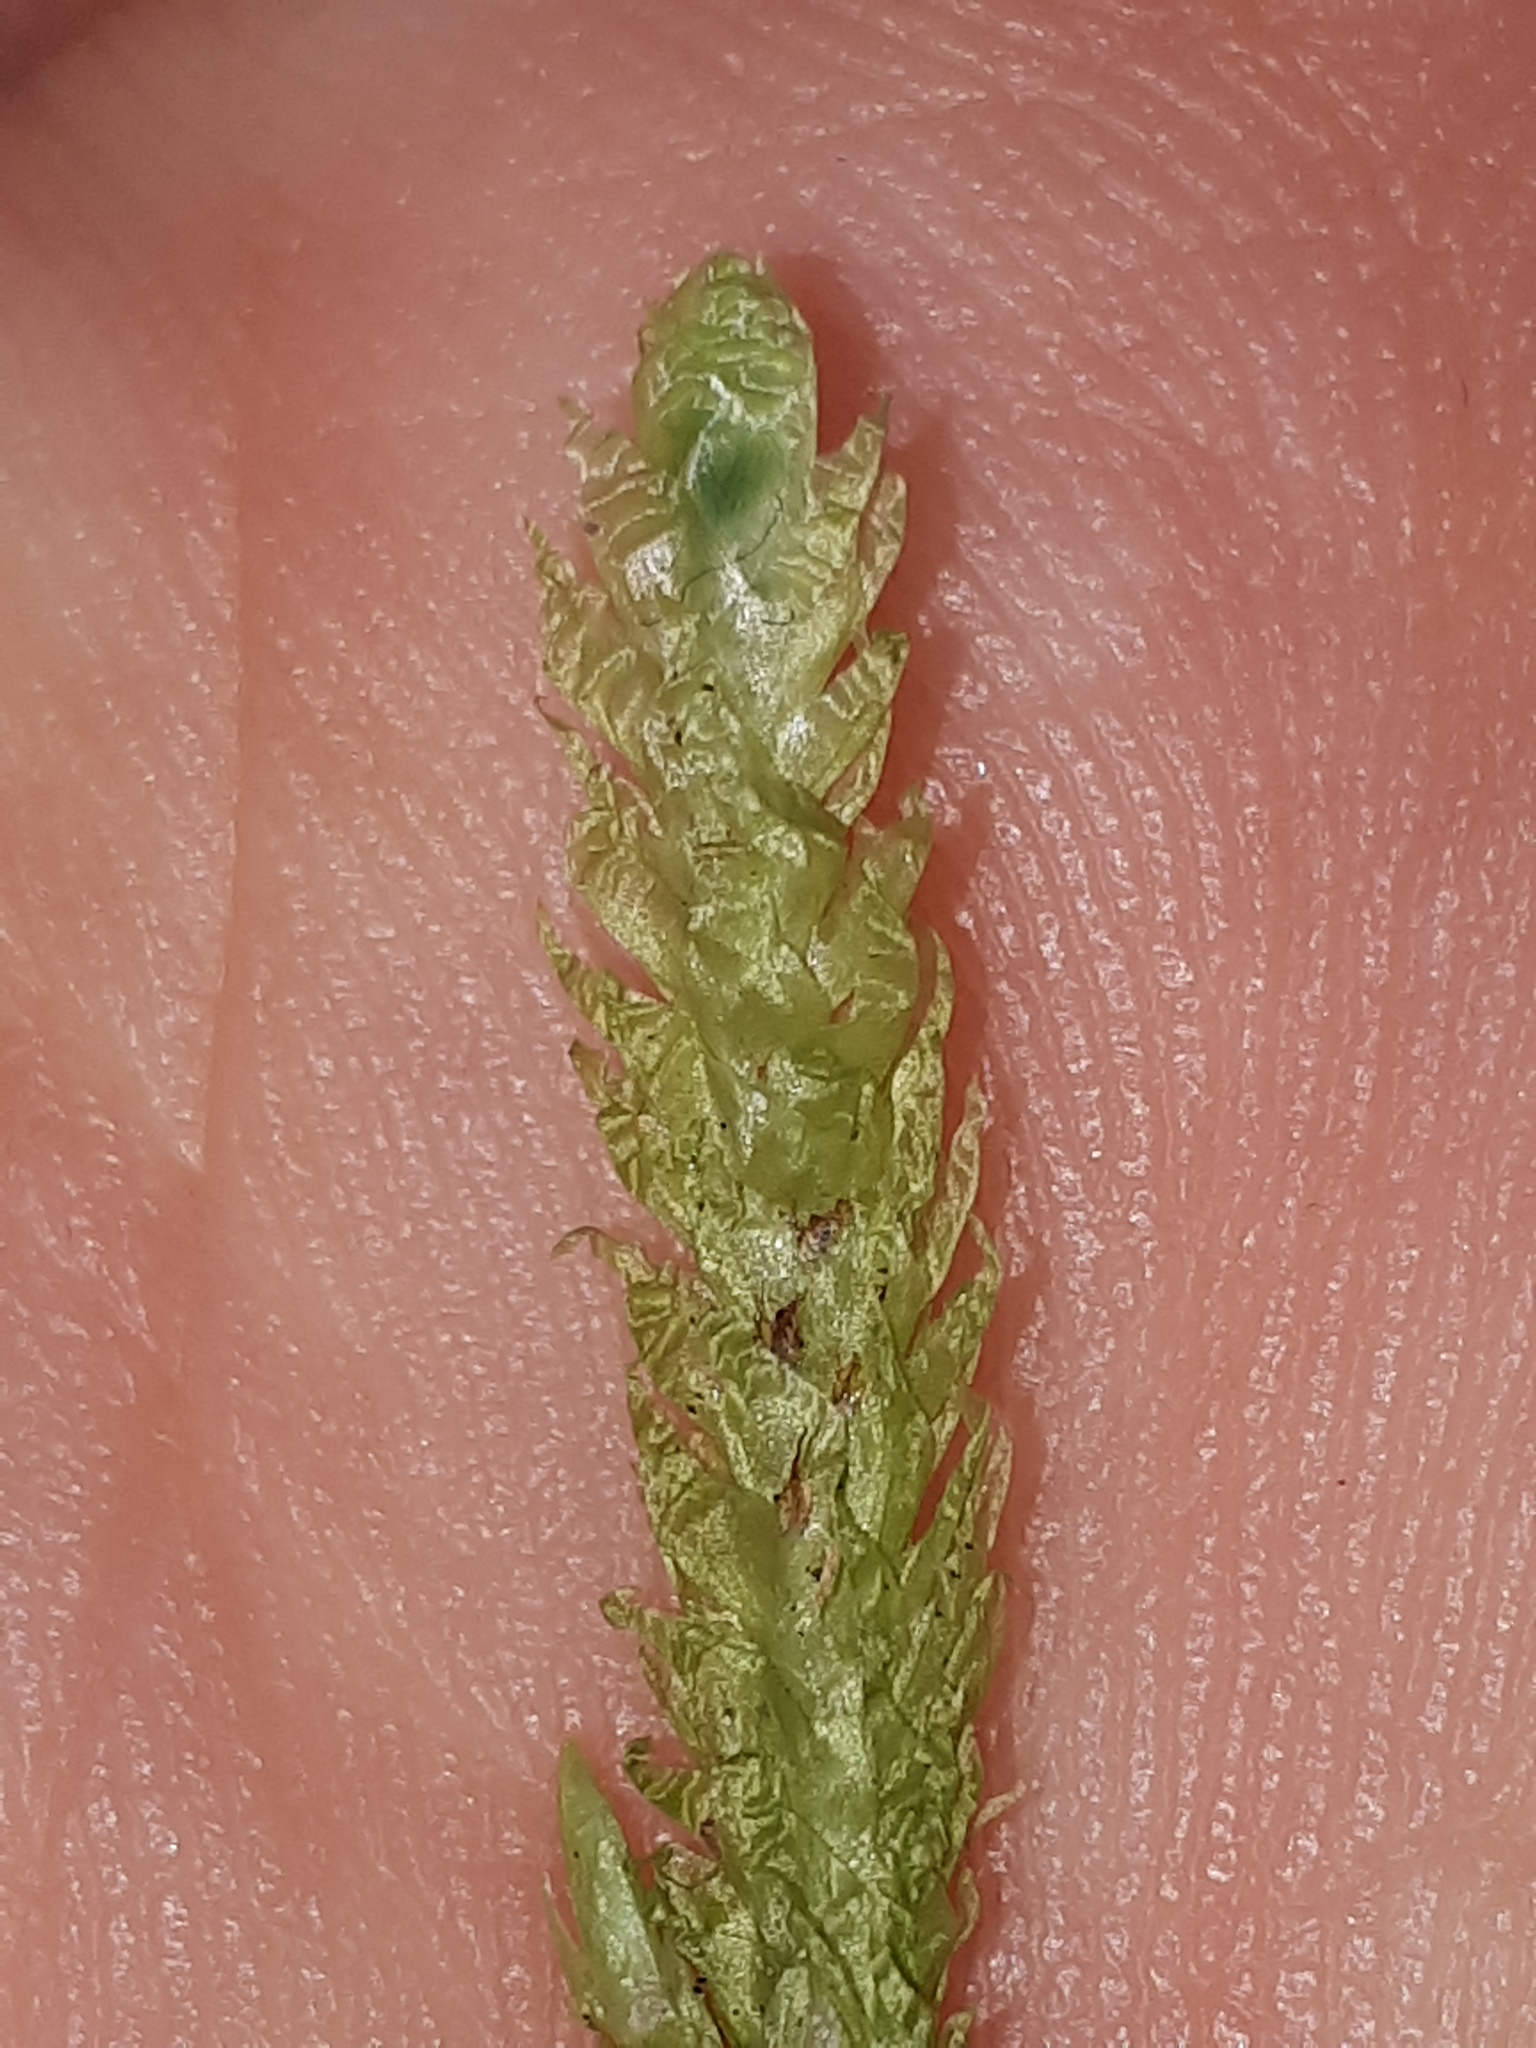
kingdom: Plantae
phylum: Bryophyta
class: Bryopsida
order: Hypnales
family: Plagiotheciaceae
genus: Plagiothecium
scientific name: Plagiothecium undulatum
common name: Waved silk-moss
